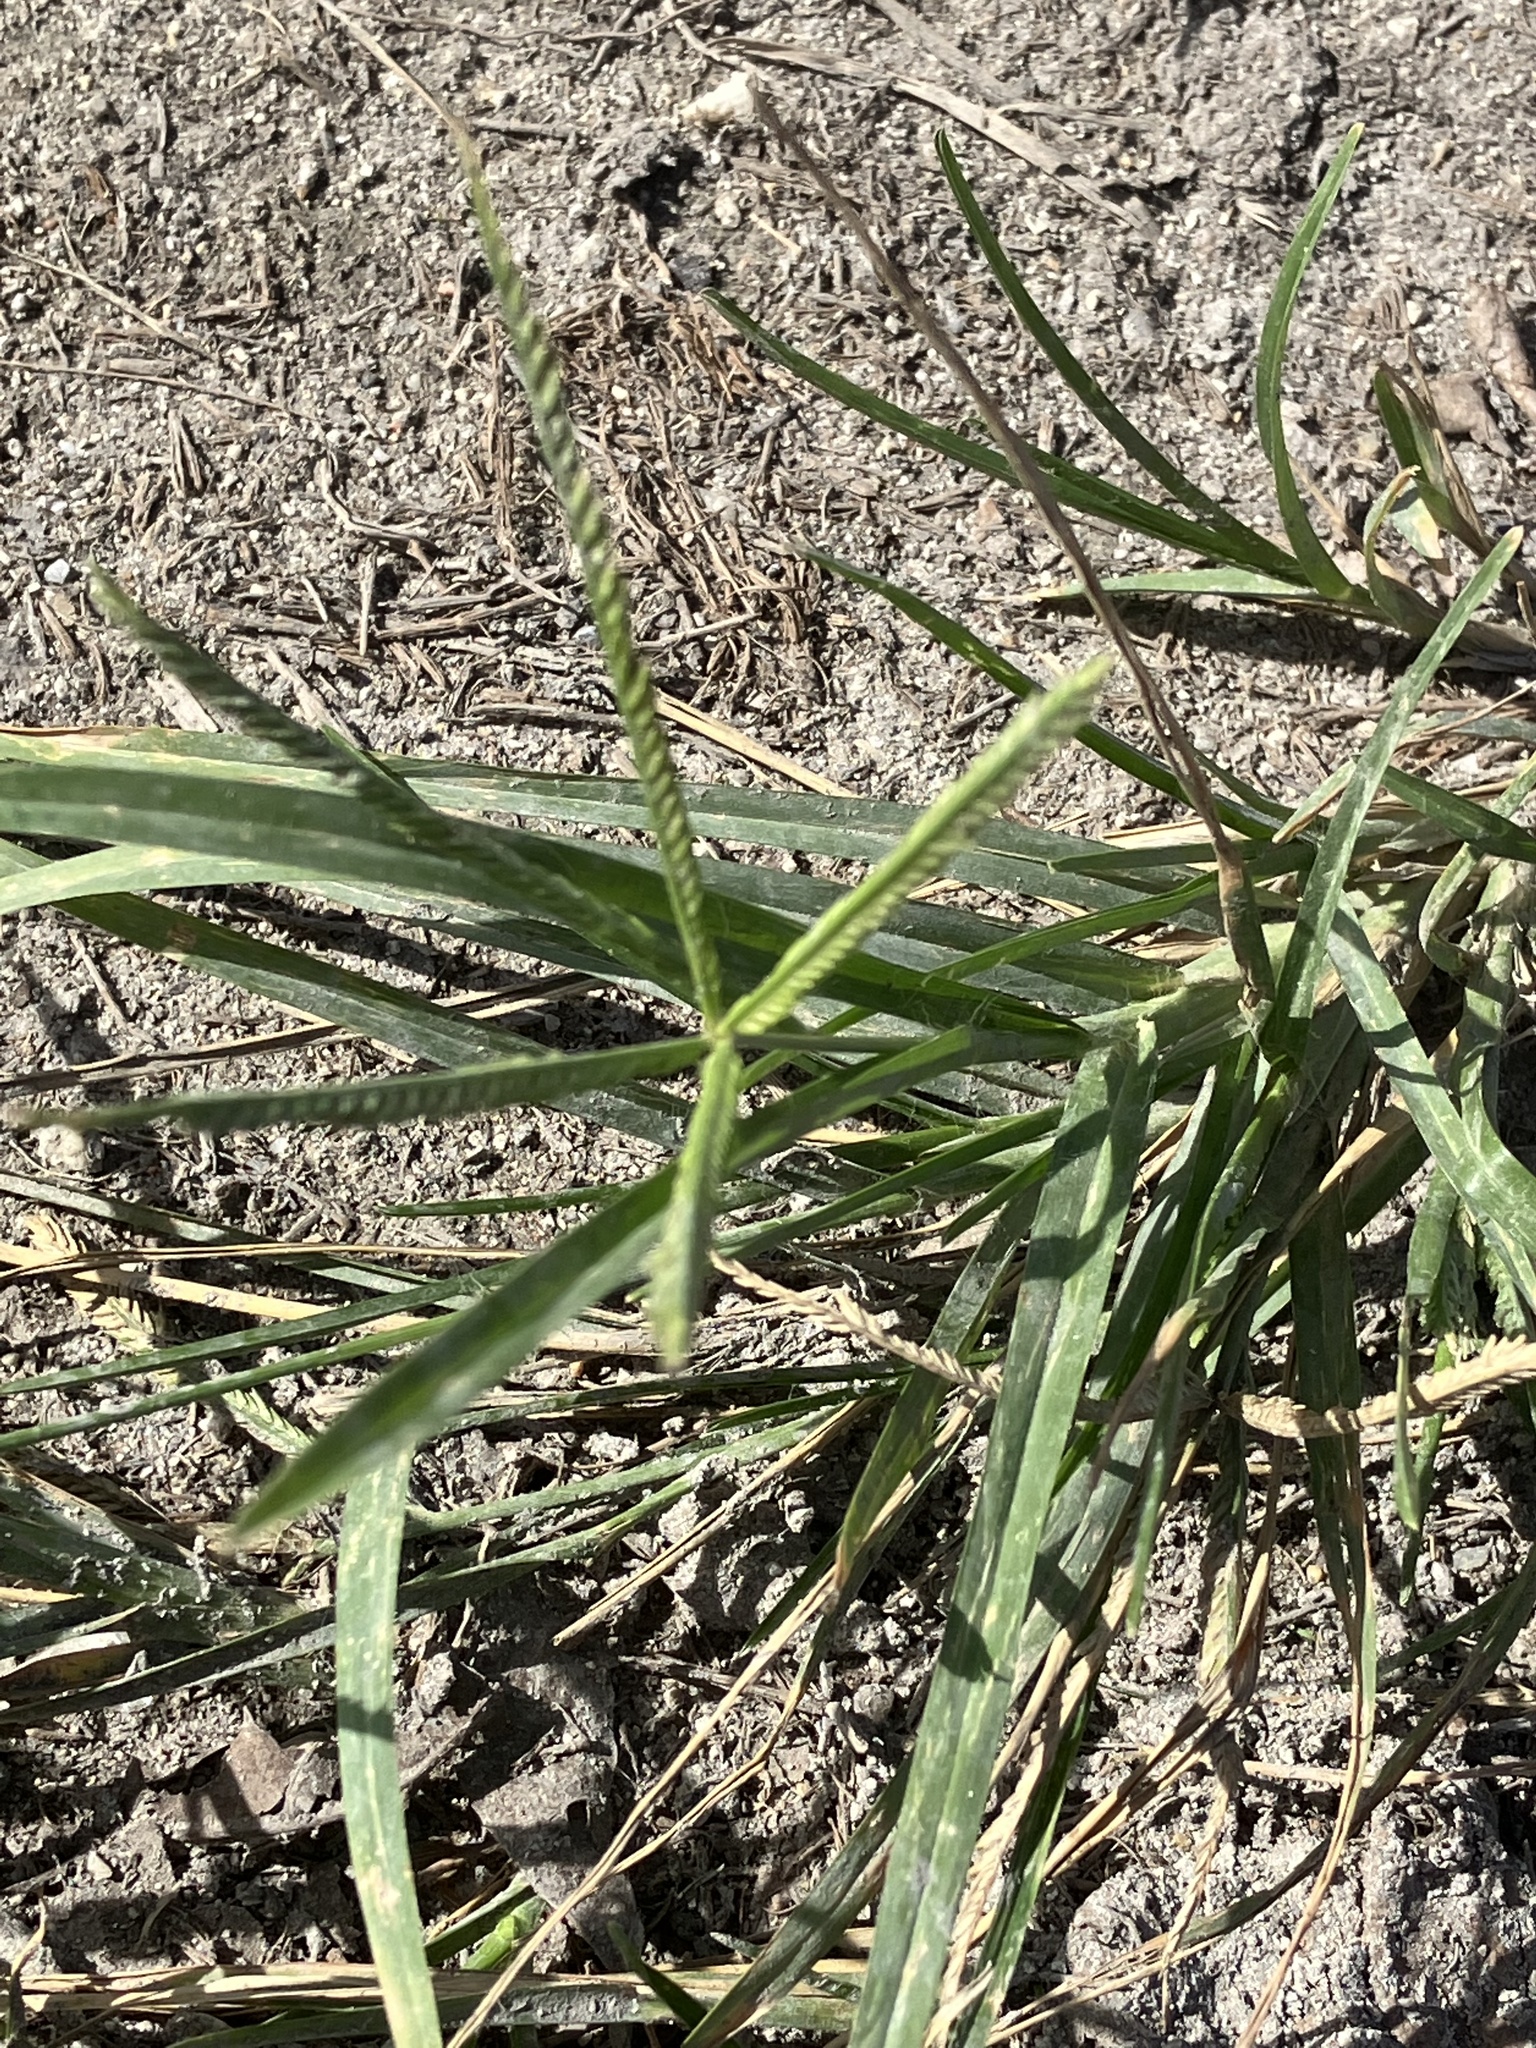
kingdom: Plantae
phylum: Tracheophyta
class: Liliopsida
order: Poales
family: Poaceae
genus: Eleusine
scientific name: Eleusine indica
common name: Yard-grass
